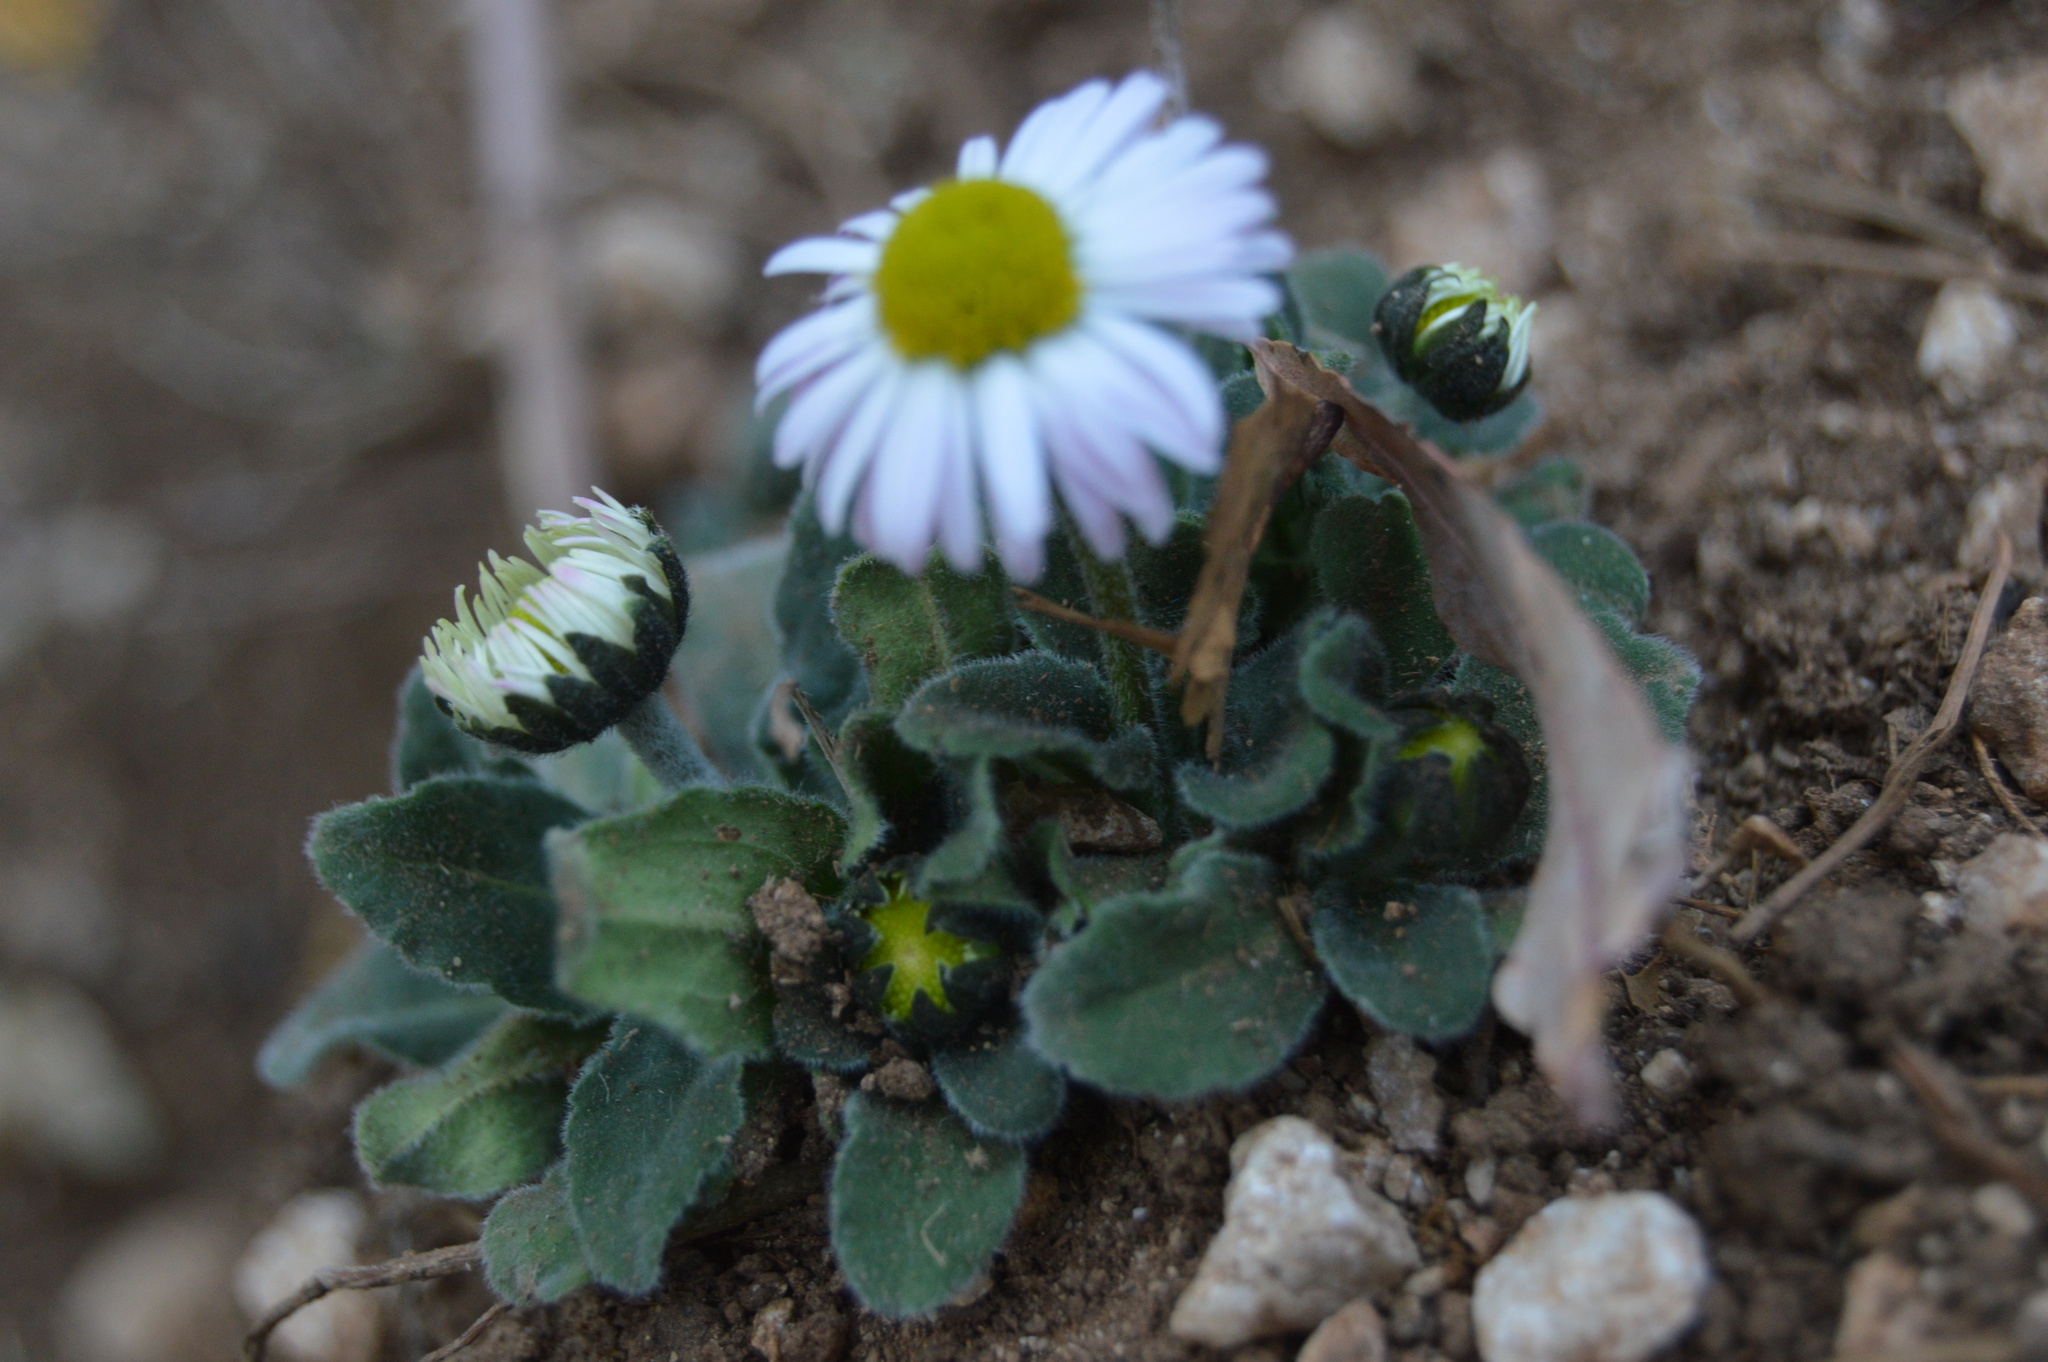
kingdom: Plantae
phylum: Tracheophyta
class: Magnoliopsida
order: Asterales
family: Asteraceae
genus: Bellis
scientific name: Bellis perennis
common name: Lawndaisy
